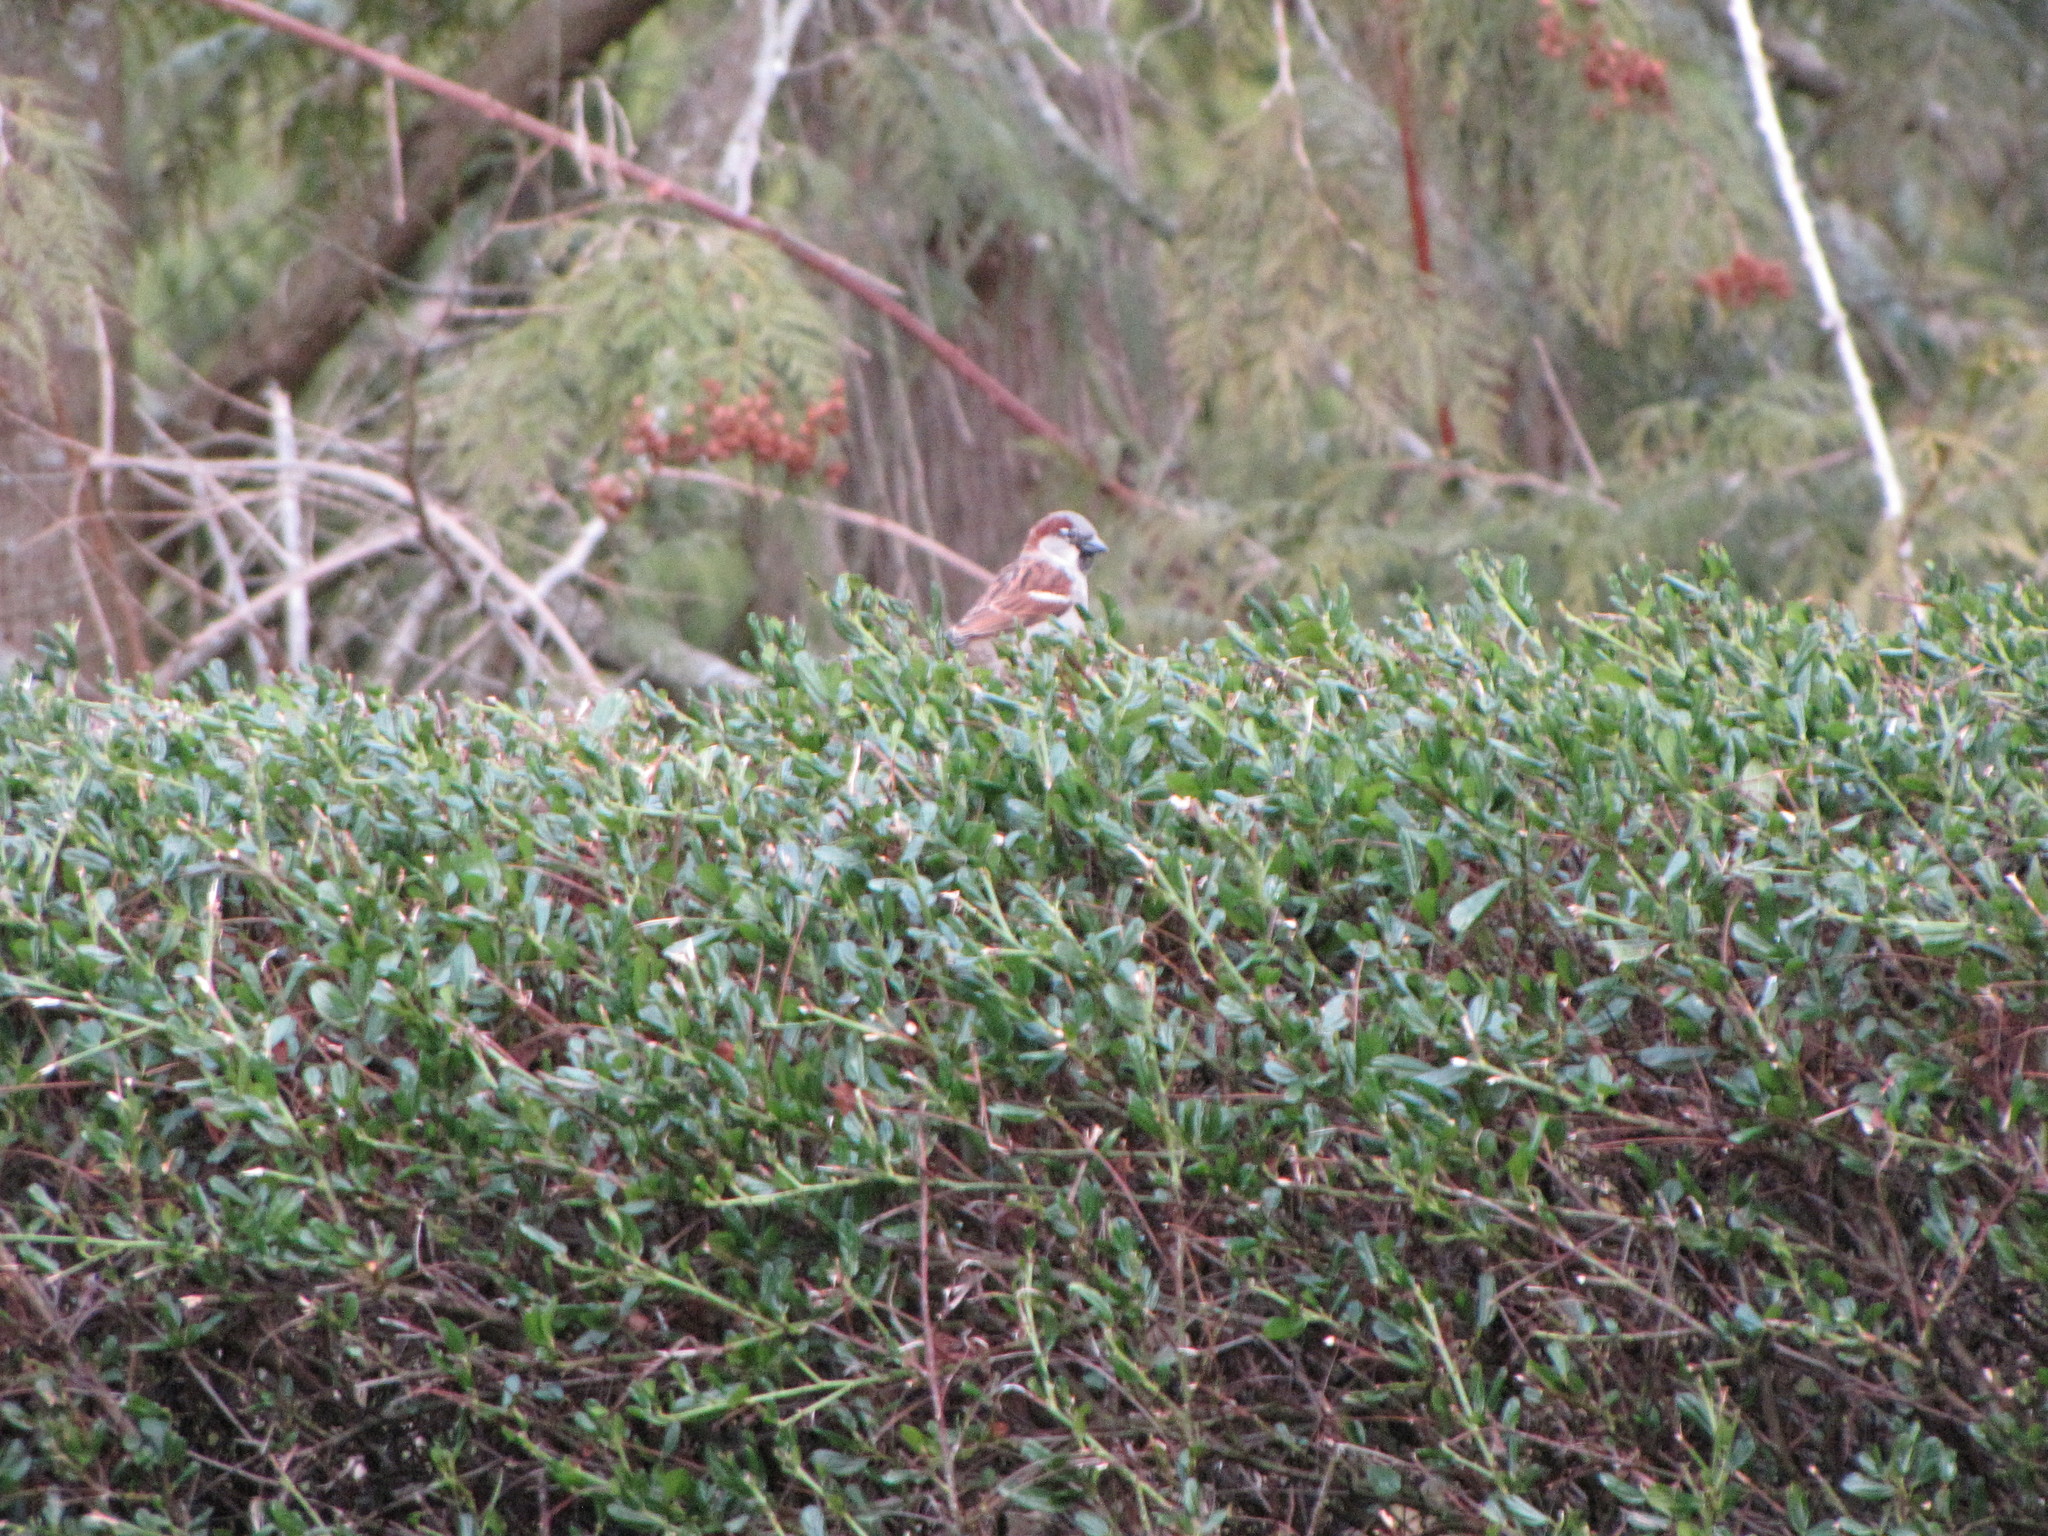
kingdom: Animalia
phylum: Chordata
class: Aves
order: Passeriformes
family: Passeridae
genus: Passer
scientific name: Passer domesticus
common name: House sparrow
